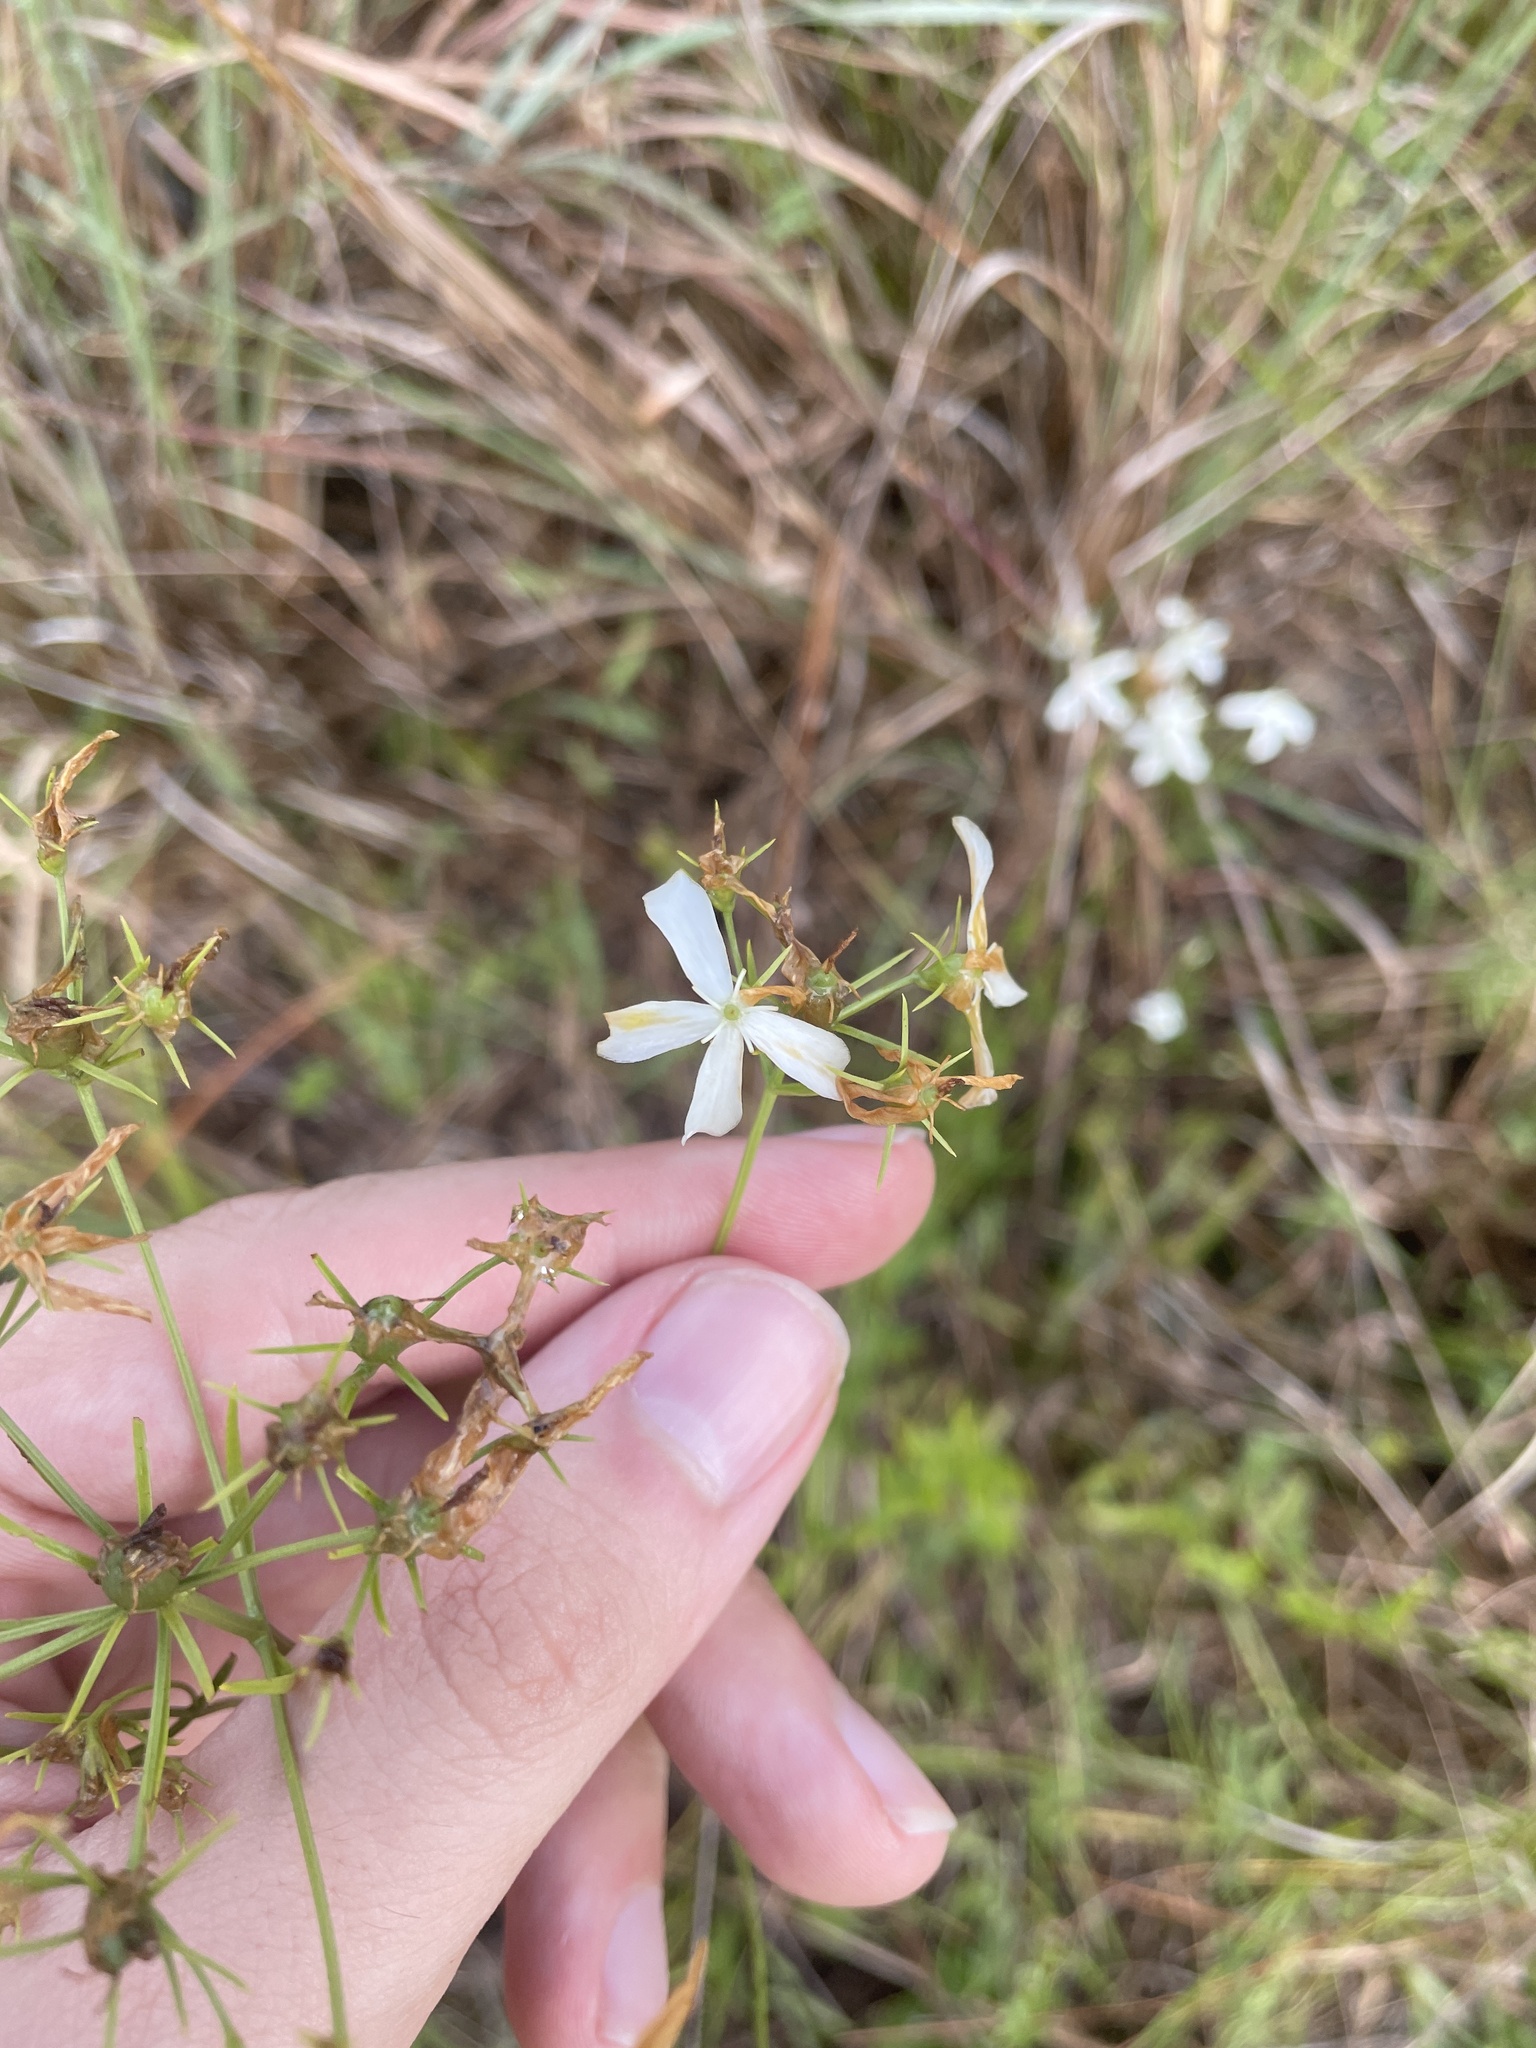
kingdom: Plantae
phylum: Tracheophyta
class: Magnoliopsida
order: Gentianales
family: Gentianaceae
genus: Sabatia
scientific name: Sabatia difformis
